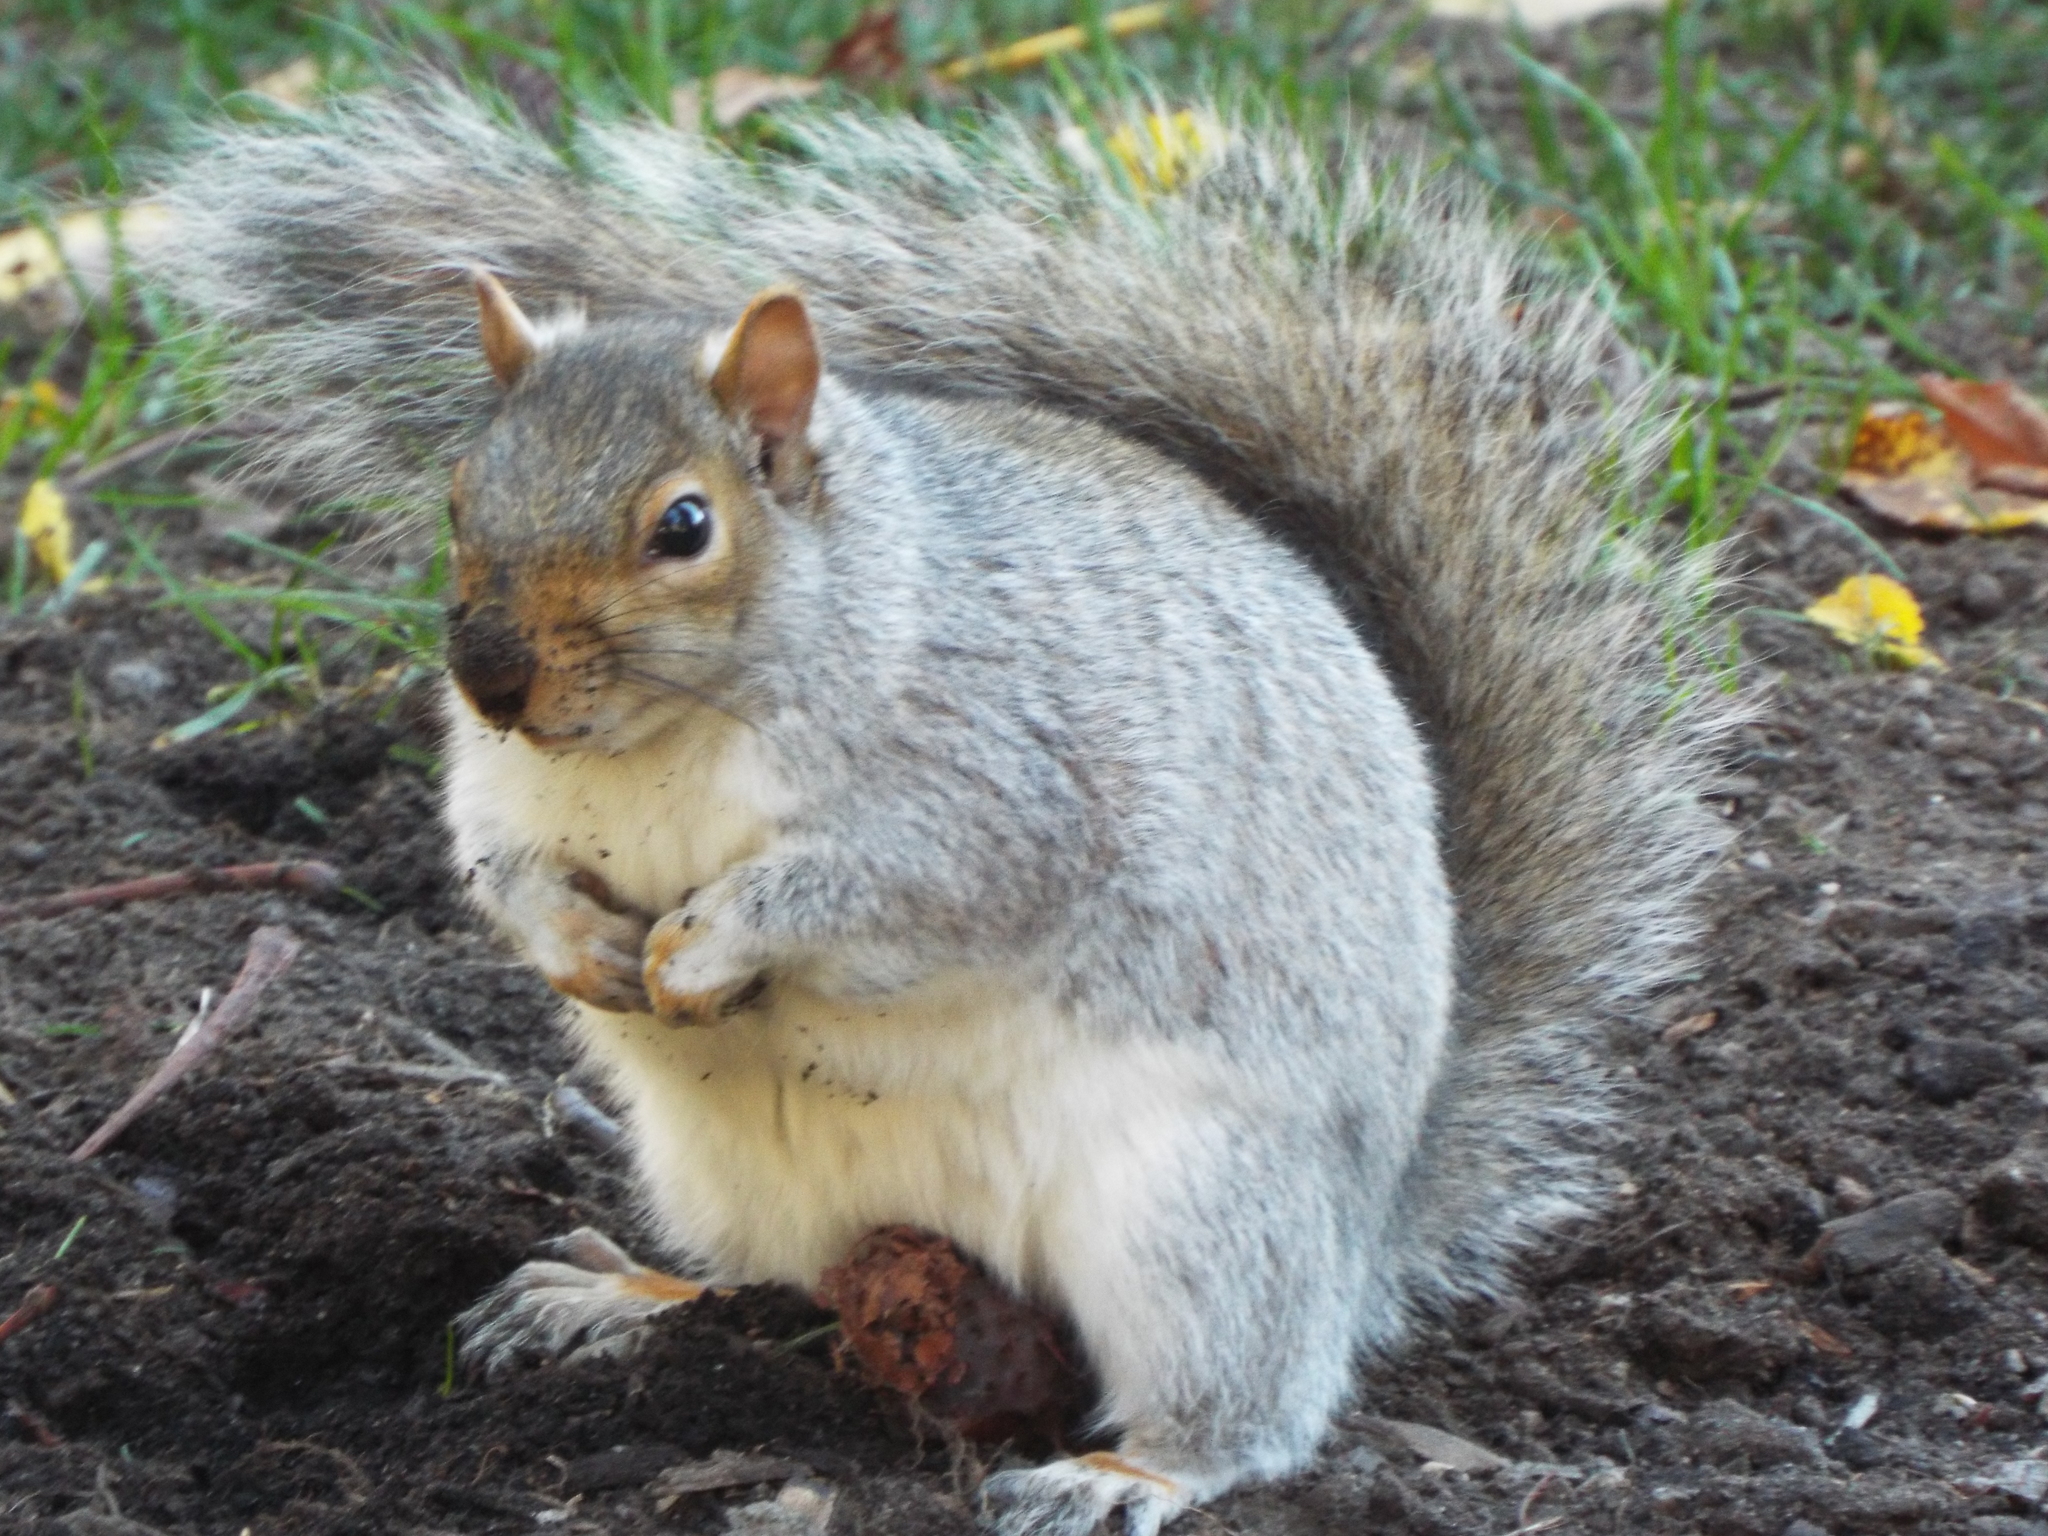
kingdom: Animalia
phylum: Chordata
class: Mammalia
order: Rodentia
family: Sciuridae
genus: Sciurus
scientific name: Sciurus carolinensis
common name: Eastern gray squirrel
